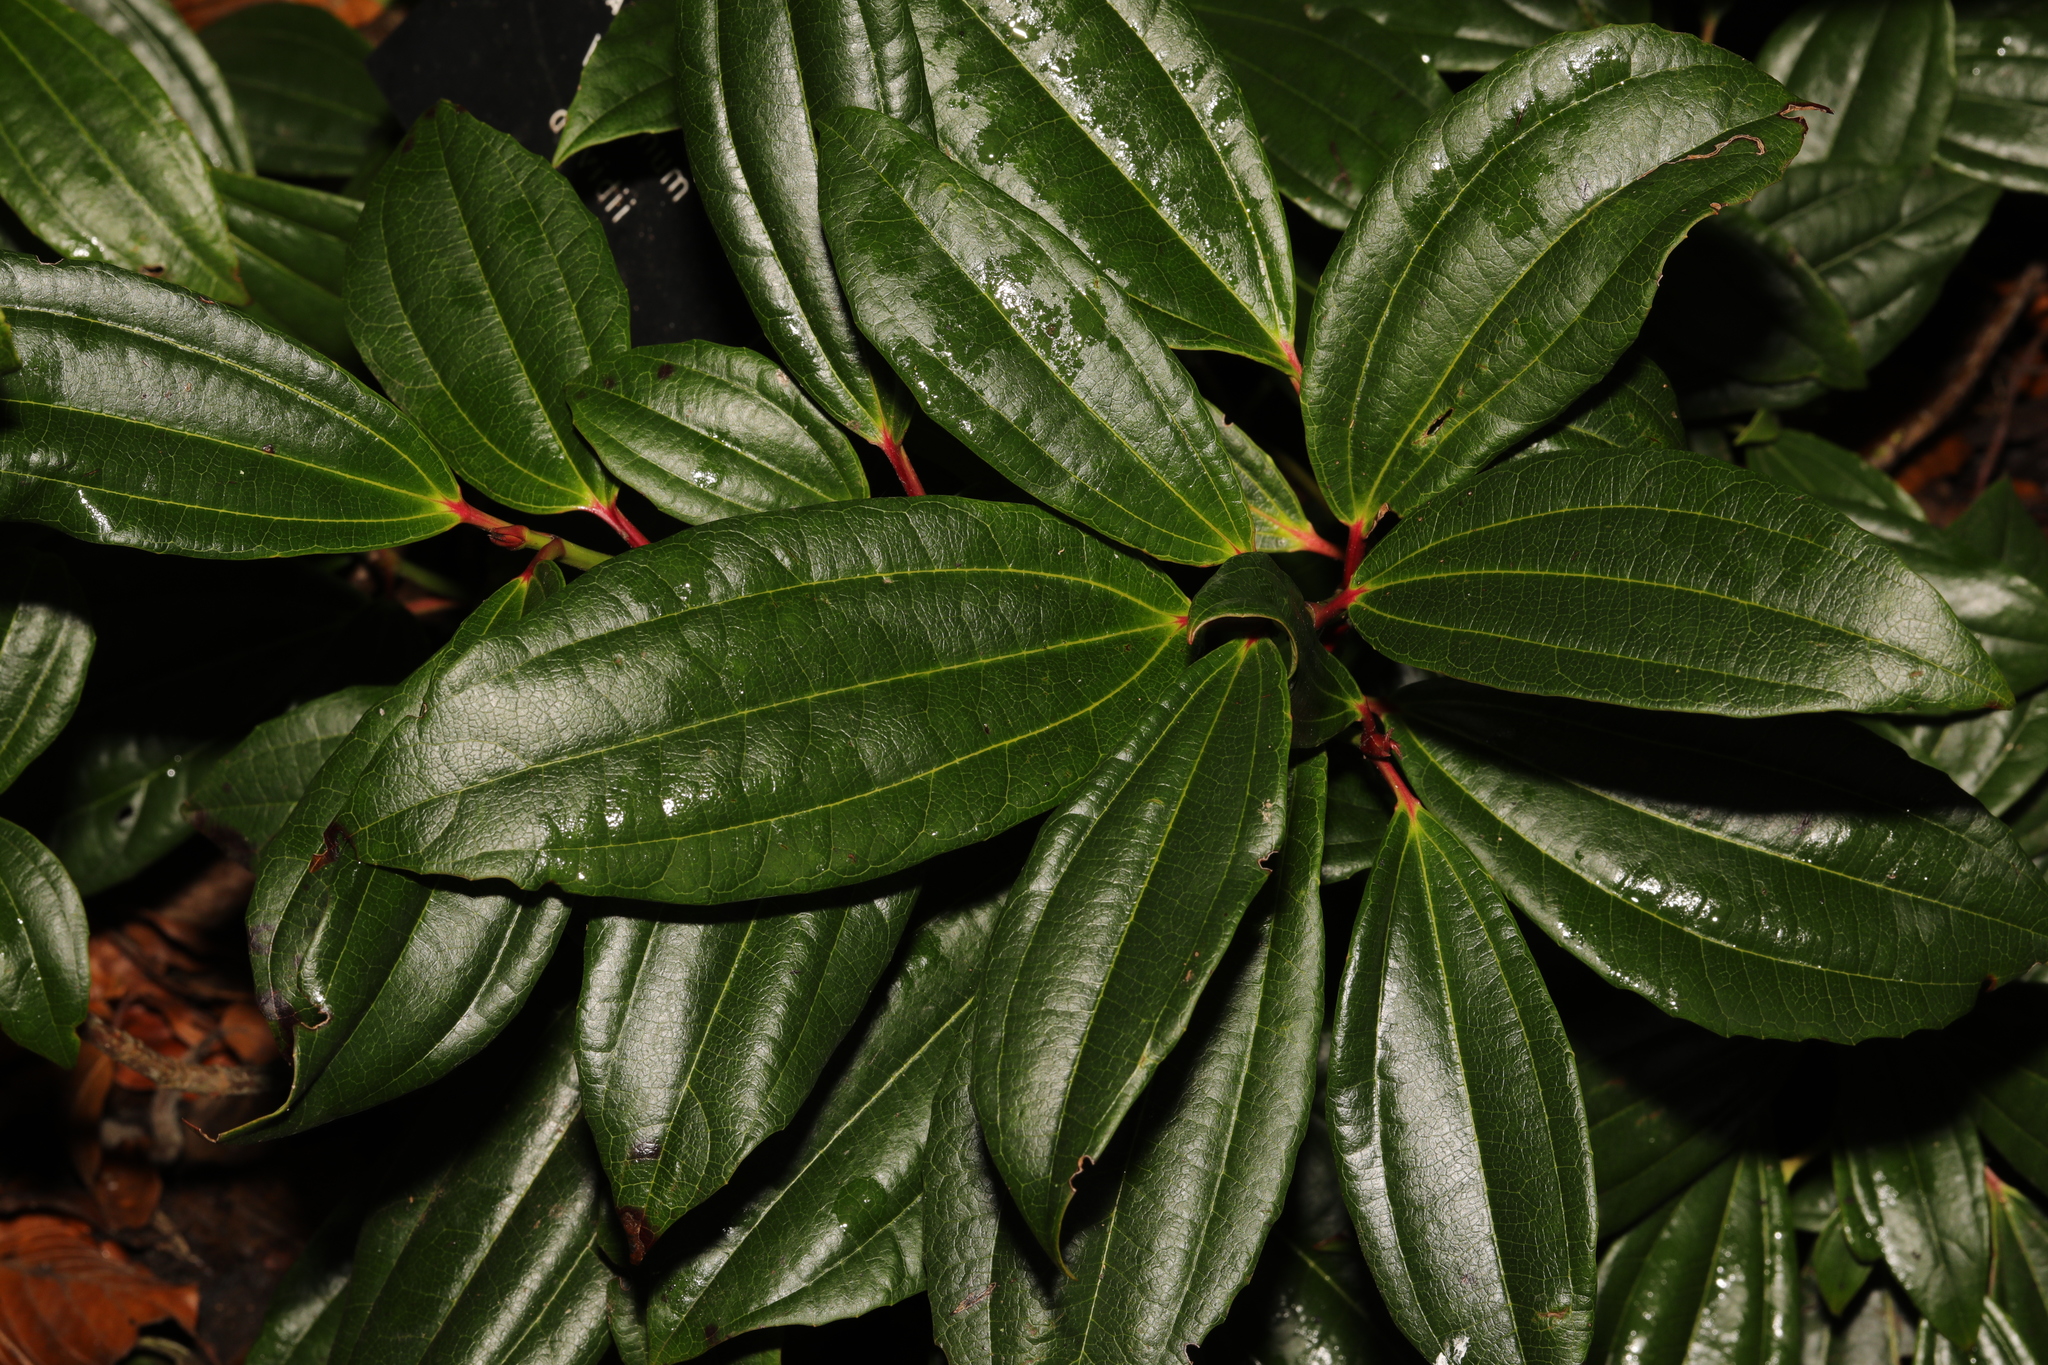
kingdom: Plantae
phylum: Tracheophyta
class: Magnoliopsida
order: Dipsacales
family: Viburnaceae
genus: Viburnum
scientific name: Viburnum davidi
